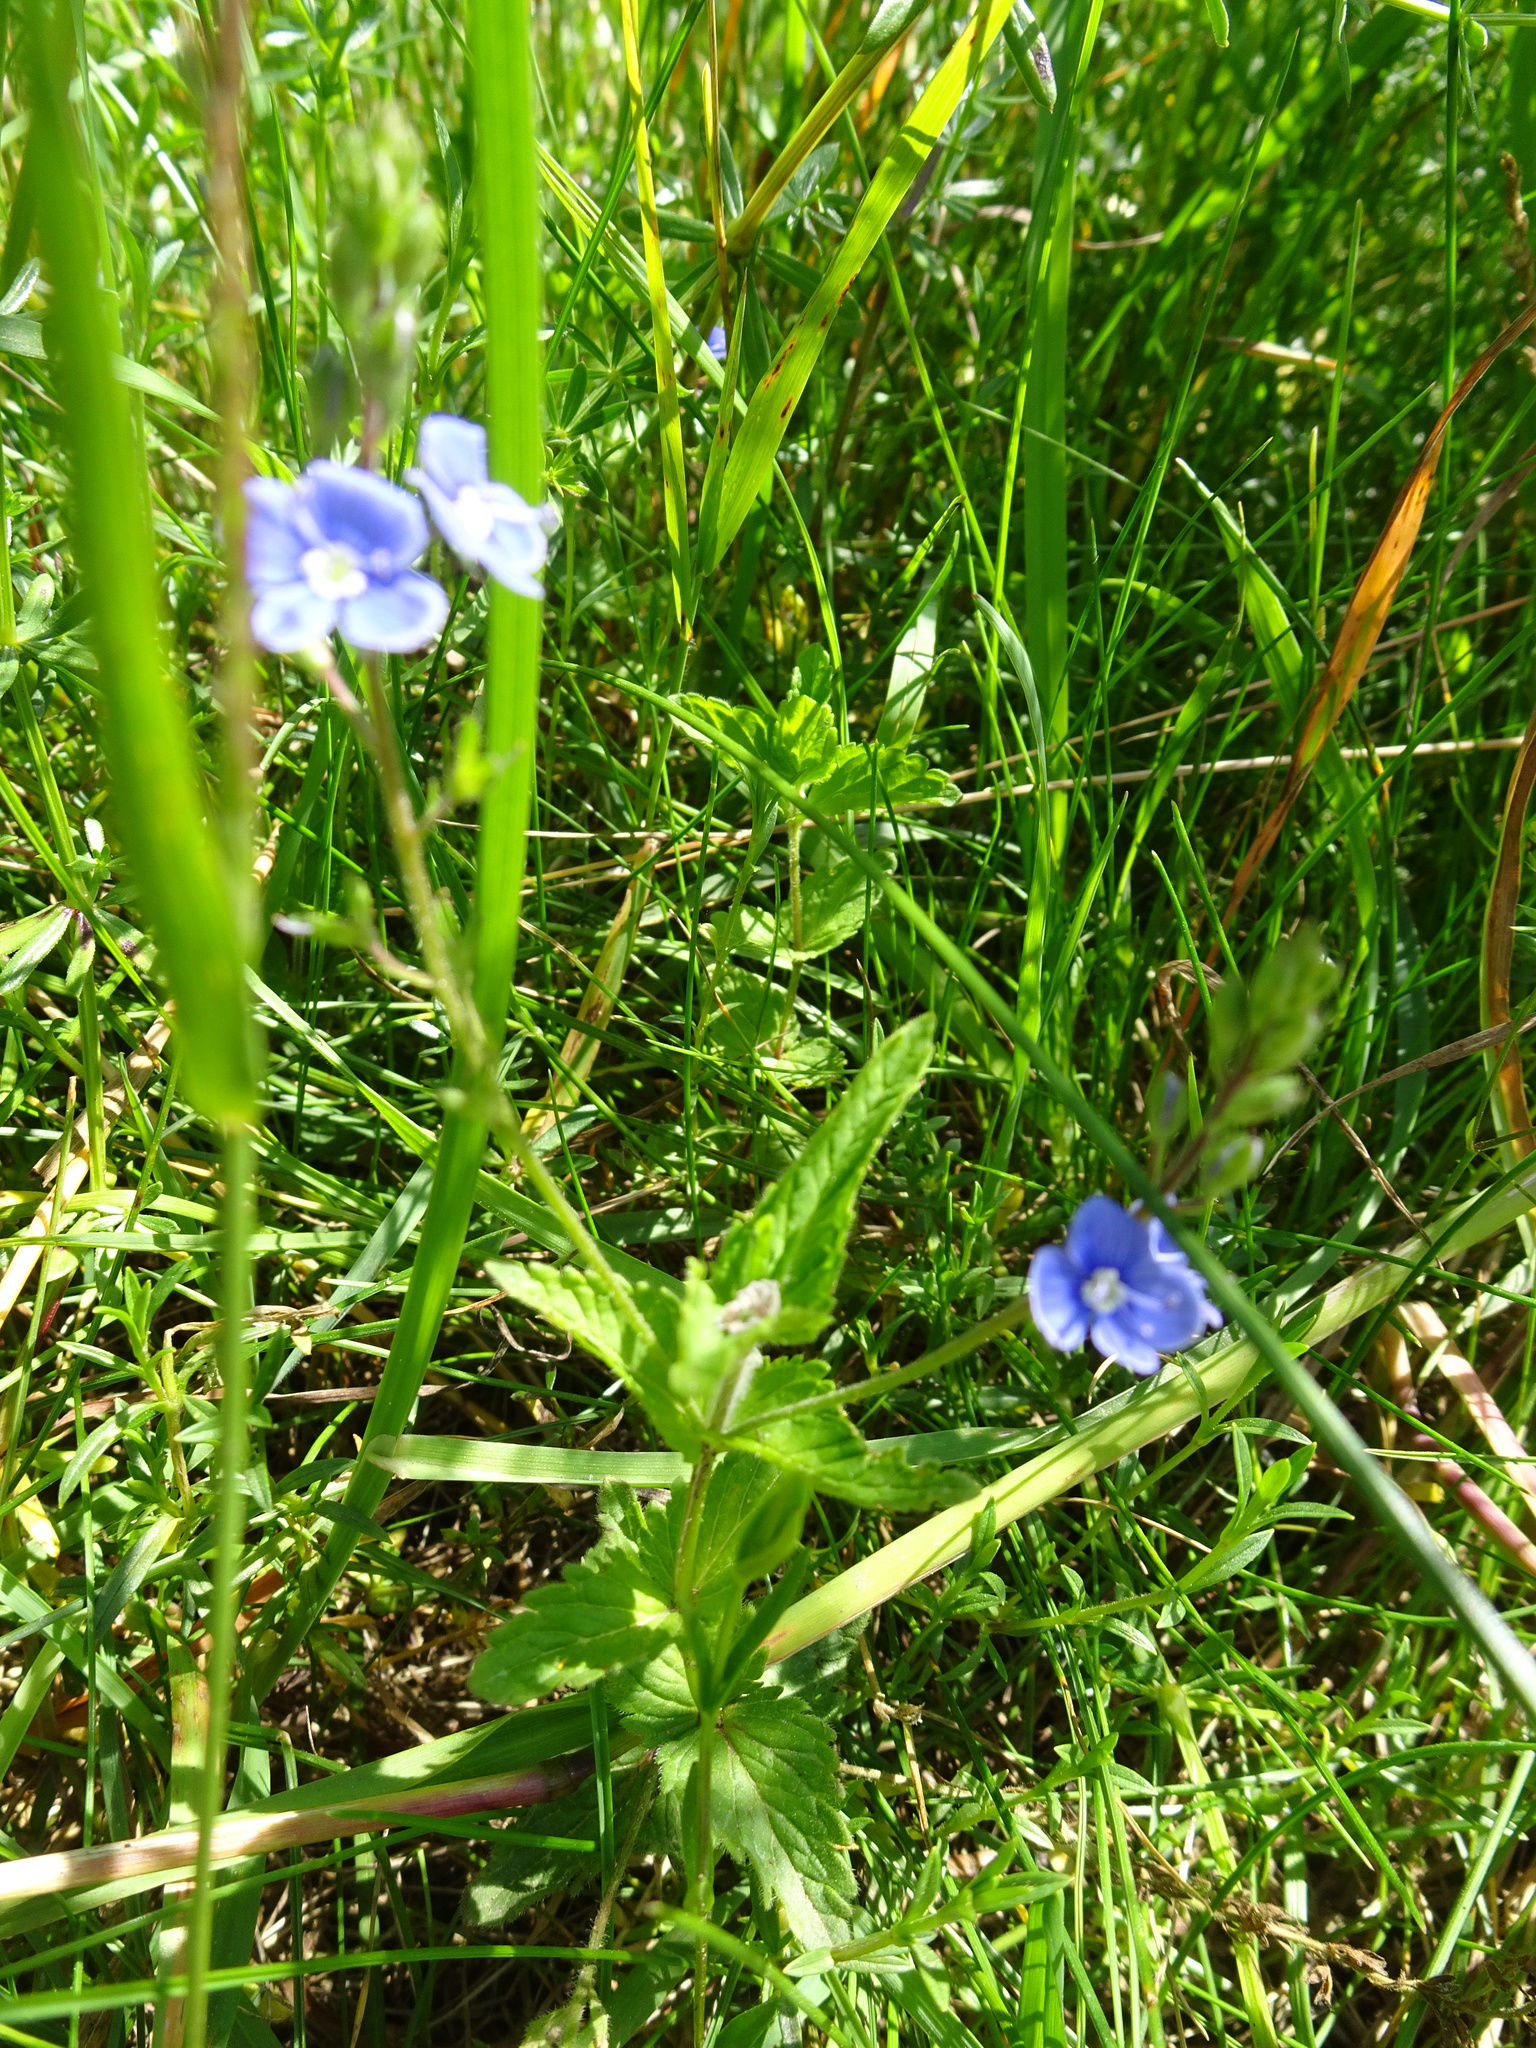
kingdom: Plantae
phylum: Tracheophyta
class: Magnoliopsida
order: Lamiales
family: Plantaginaceae
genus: Veronica
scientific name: Veronica chamaedrys
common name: Germander speedwell
